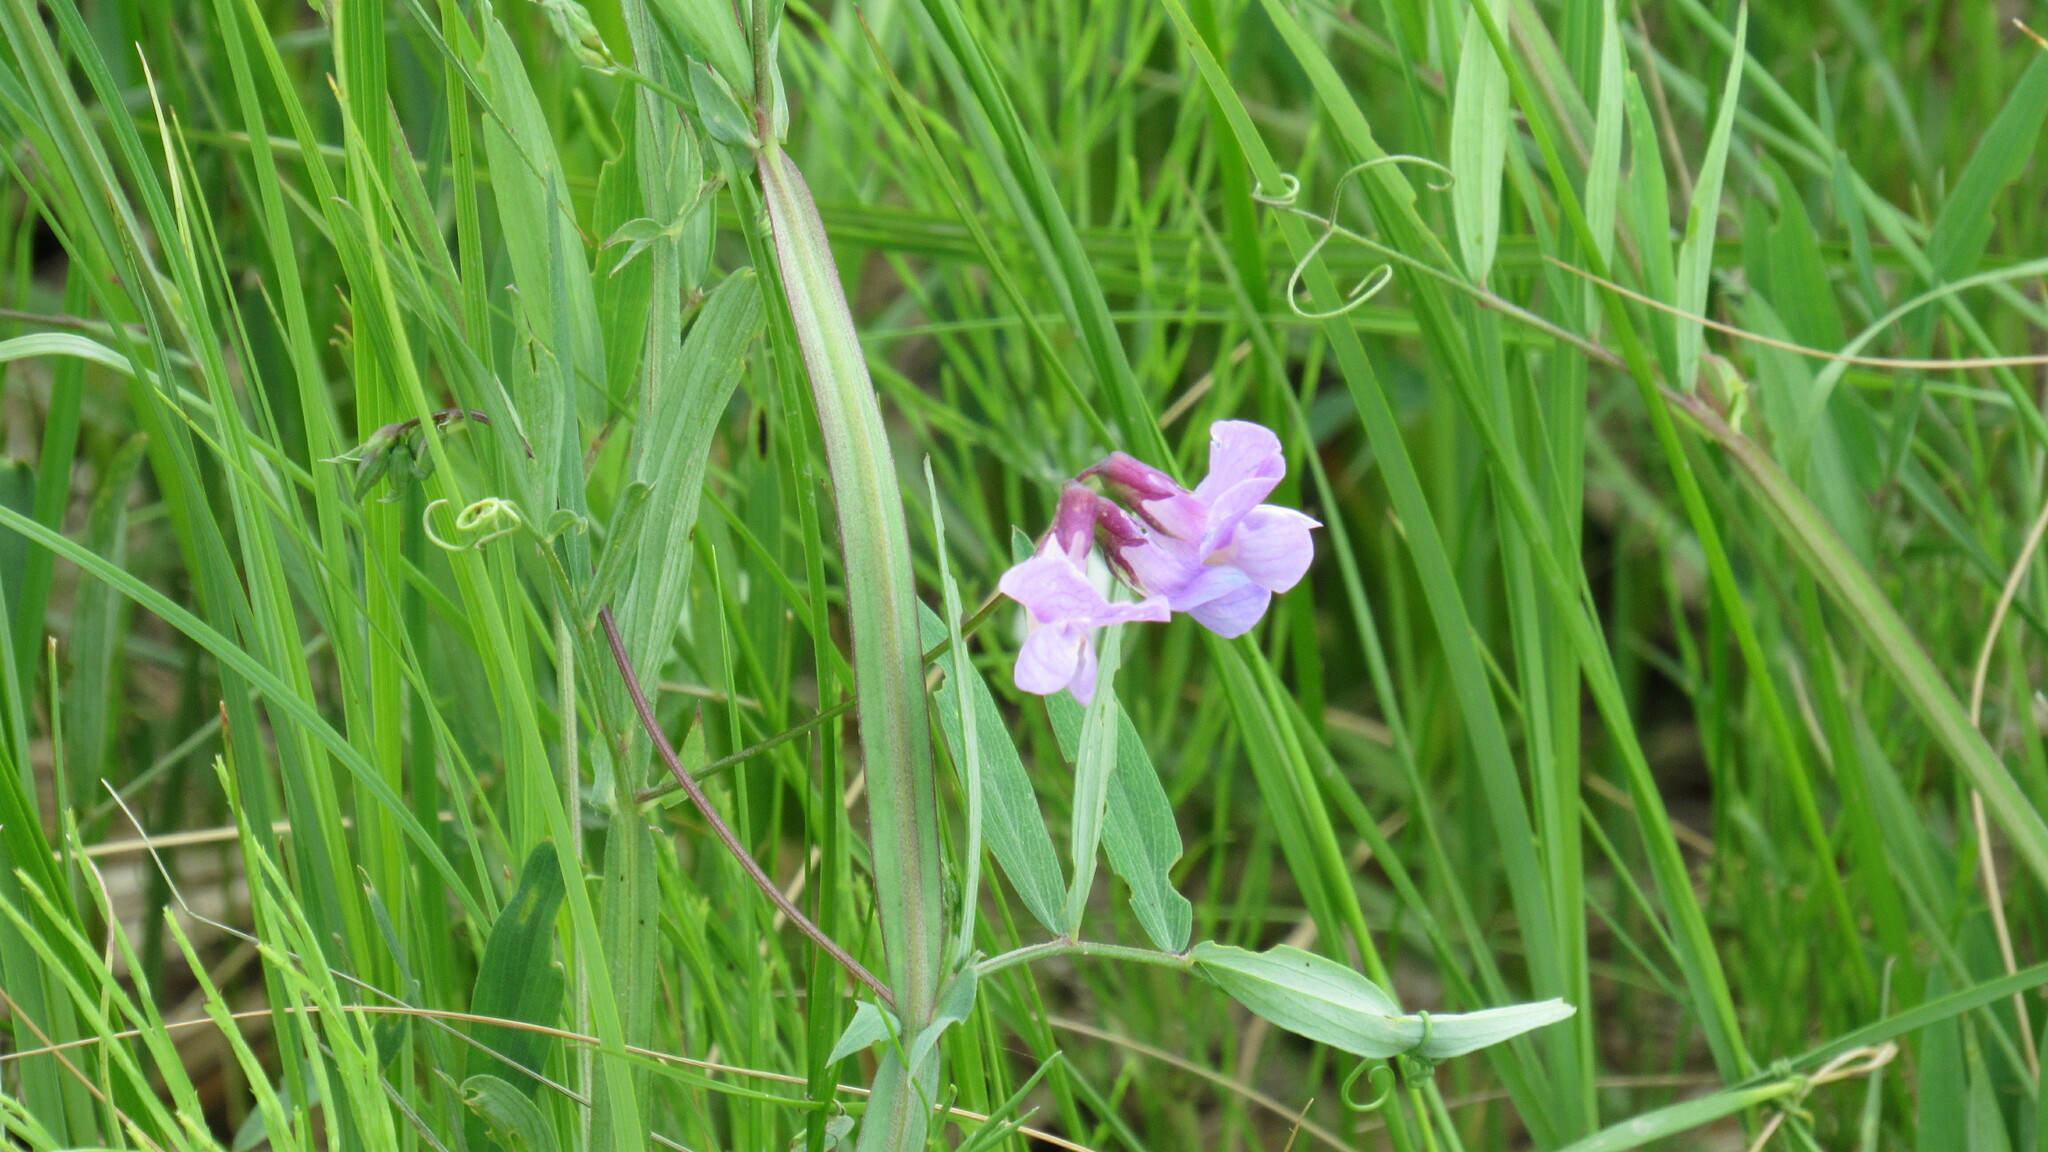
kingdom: Plantae
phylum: Tracheophyta
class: Magnoliopsida
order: Fabales
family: Fabaceae
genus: Lathyrus
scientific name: Lathyrus palustris
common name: Marsh pea
